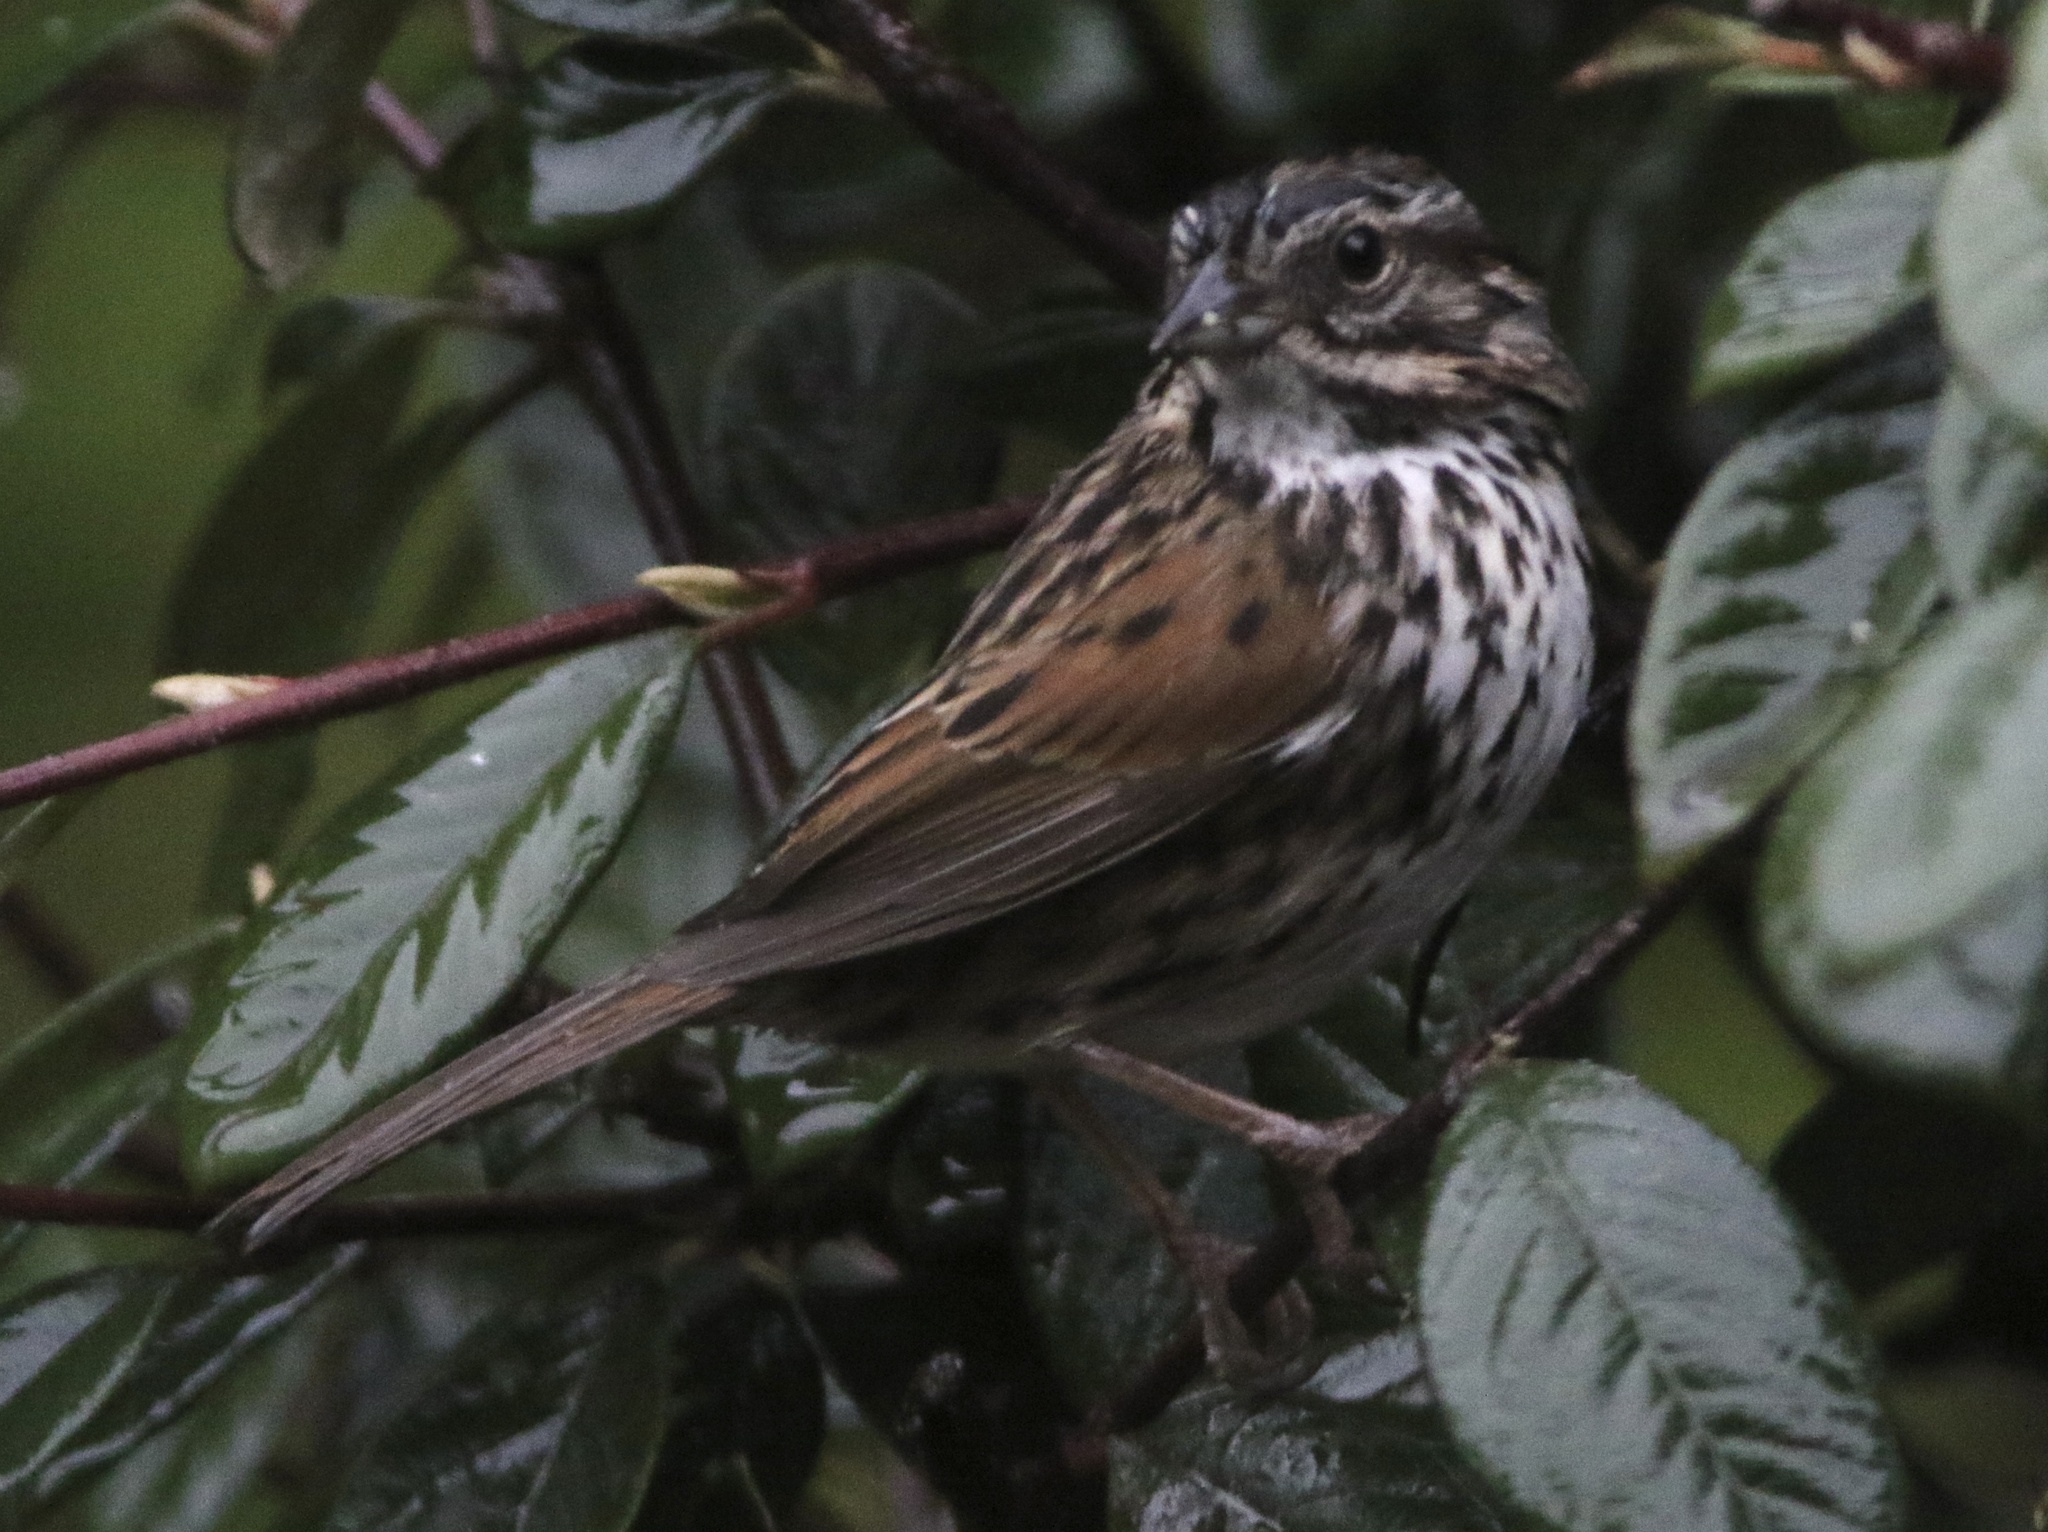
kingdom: Animalia
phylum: Chordata
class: Aves
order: Passeriformes
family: Passerellidae
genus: Melospiza
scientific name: Melospiza melodia
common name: Song sparrow
